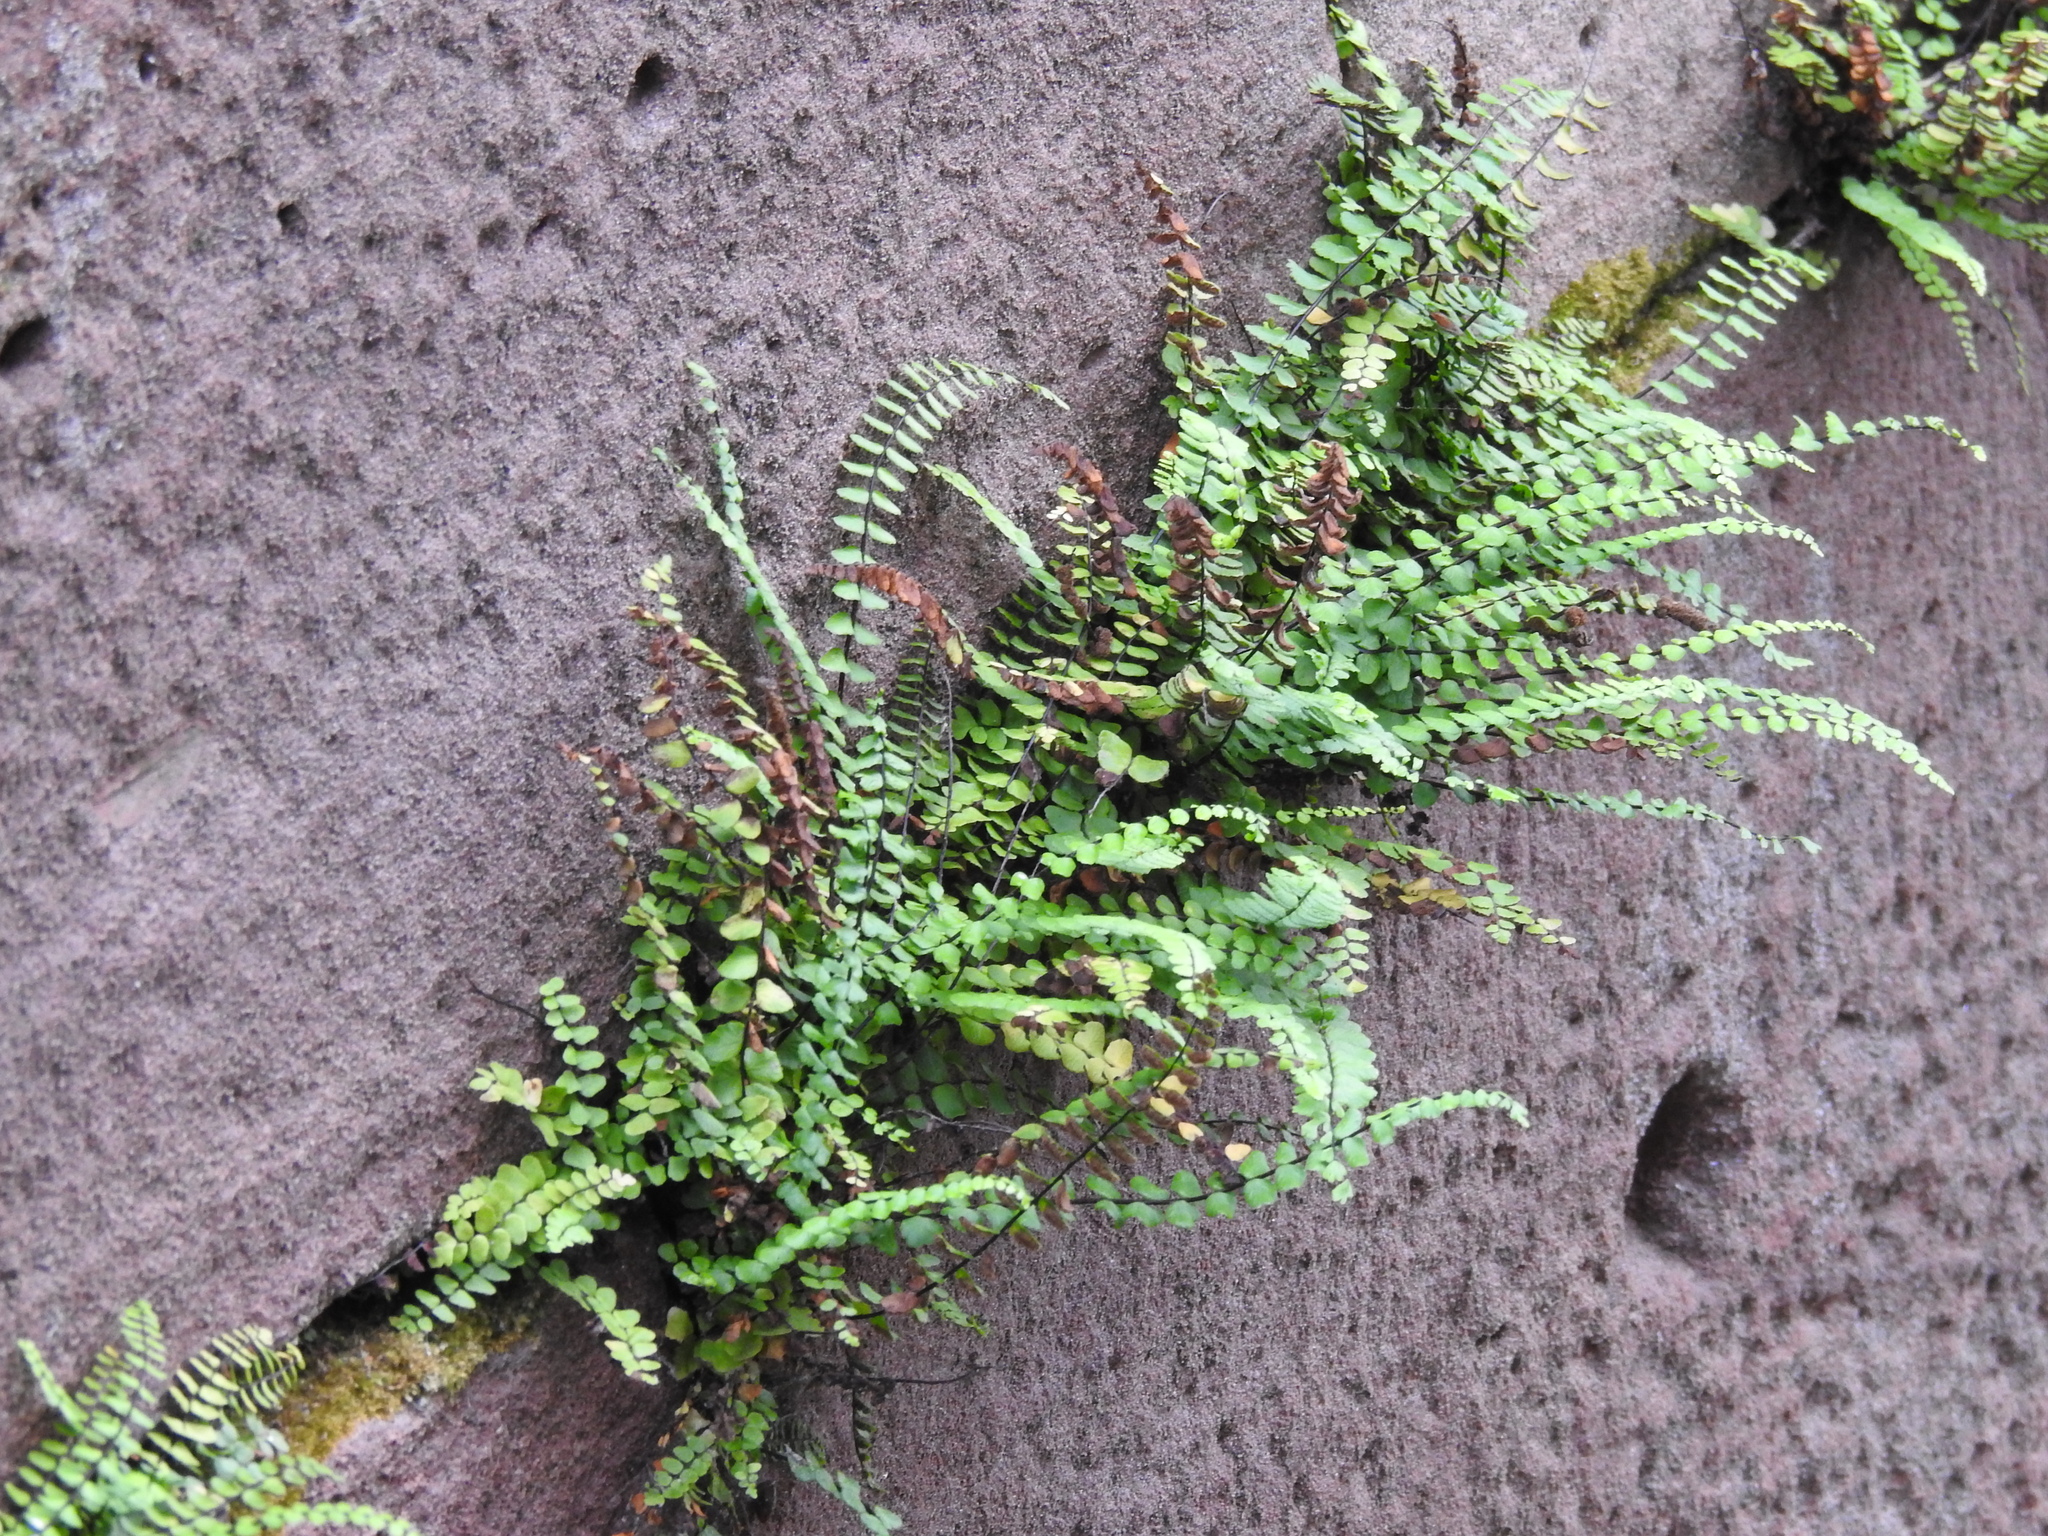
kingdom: Plantae
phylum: Tracheophyta
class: Polypodiopsida
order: Polypodiales
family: Aspleniaceae
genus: Asplenium
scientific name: Asplenium trichomanes
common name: Maidenhair spleenwort
